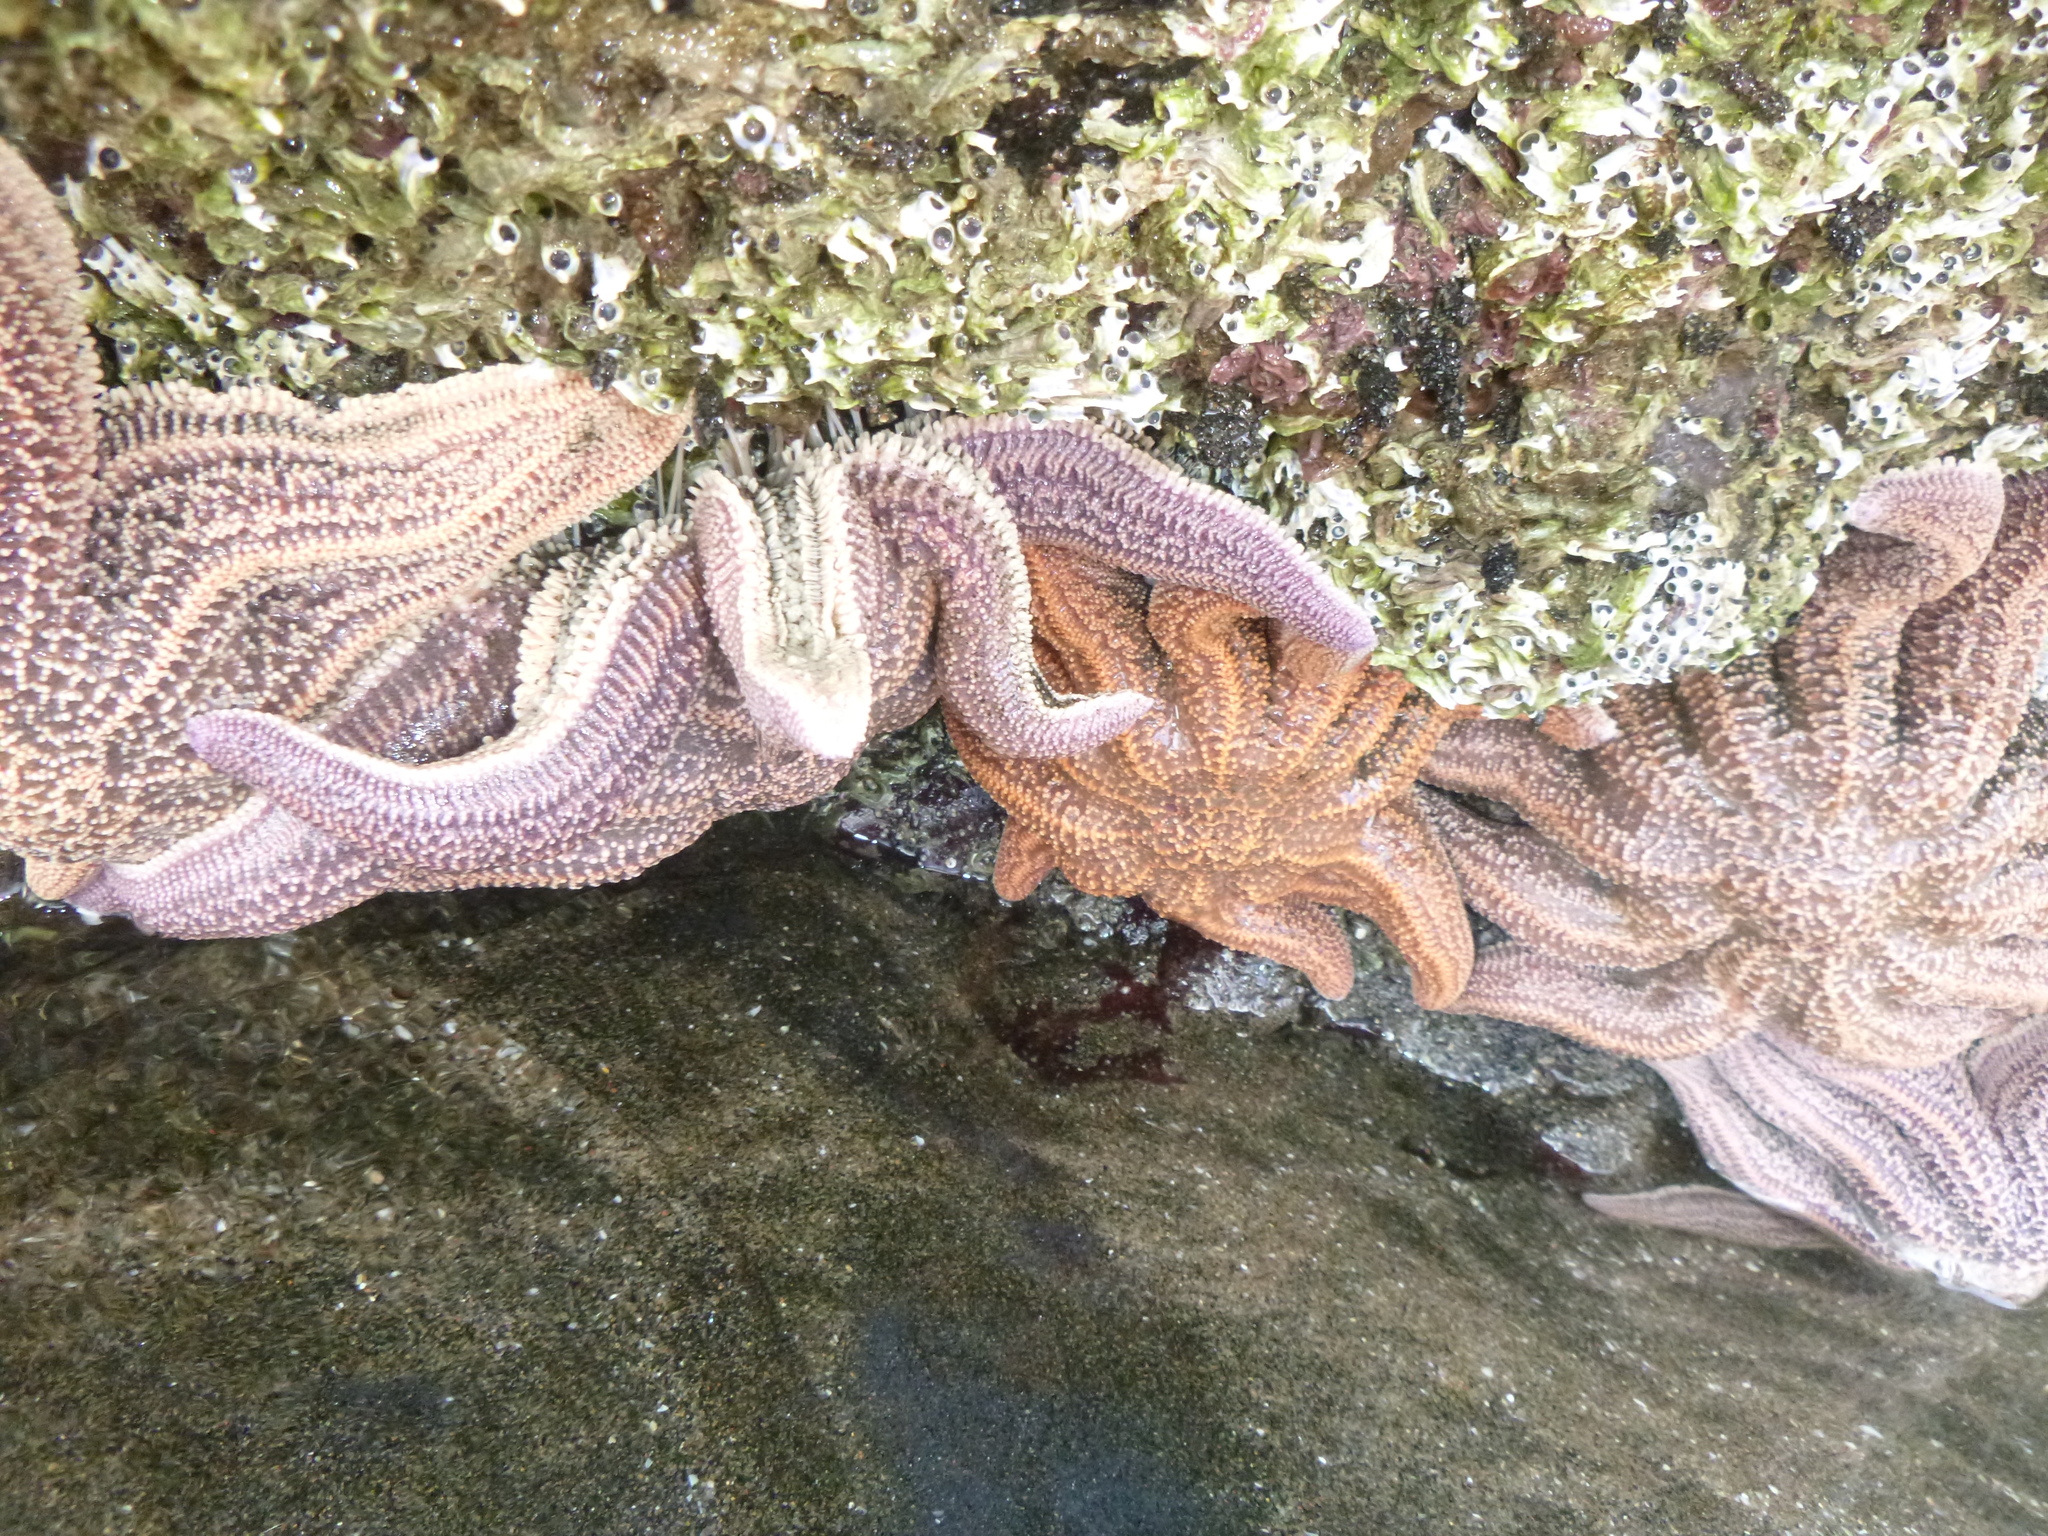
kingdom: Animalia
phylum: Echinodermata
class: Asteroidea
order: Forcipulatida
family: Stichasteridae
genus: Stichaster
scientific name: Stichaster australis
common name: Reef starfish
